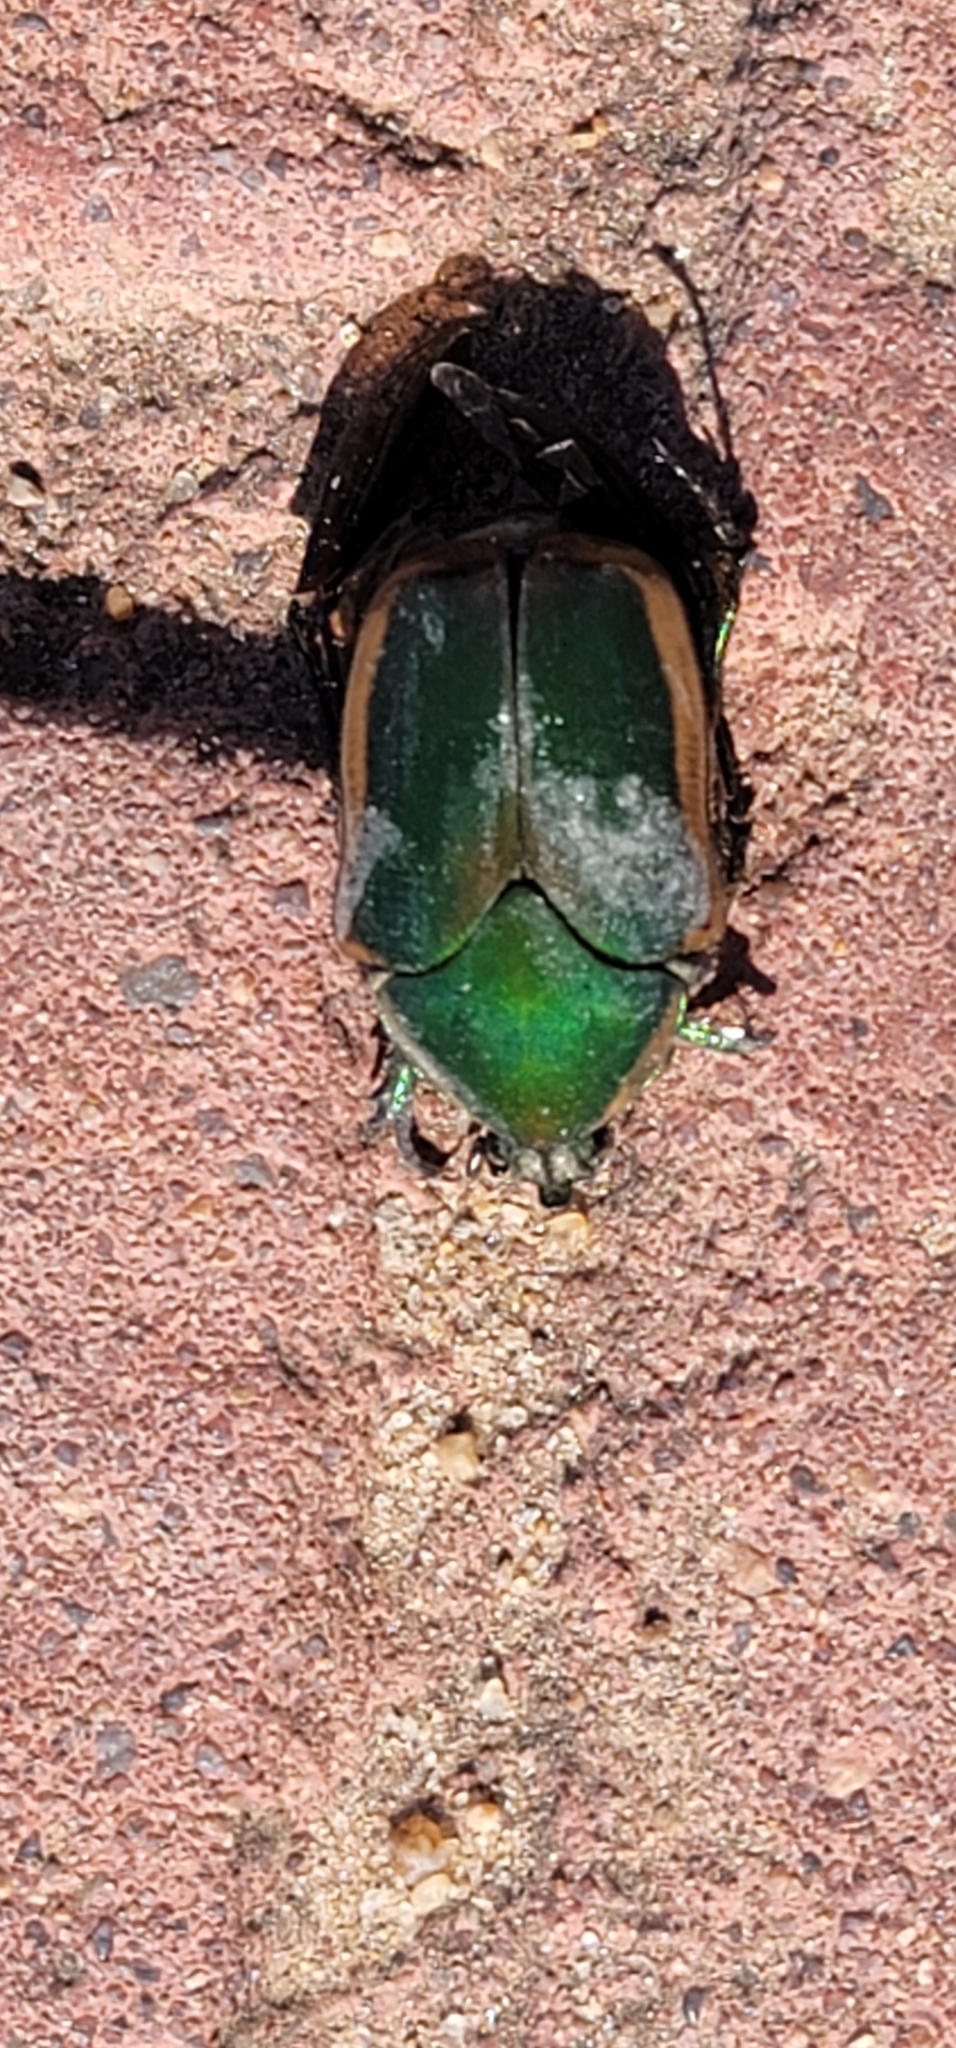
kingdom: Animalia
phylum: Arthropoda
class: Insecta
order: Coleoptera
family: Scarabaeidae
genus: Cotinis
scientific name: Cotinis nitida
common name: Common green june beetle
